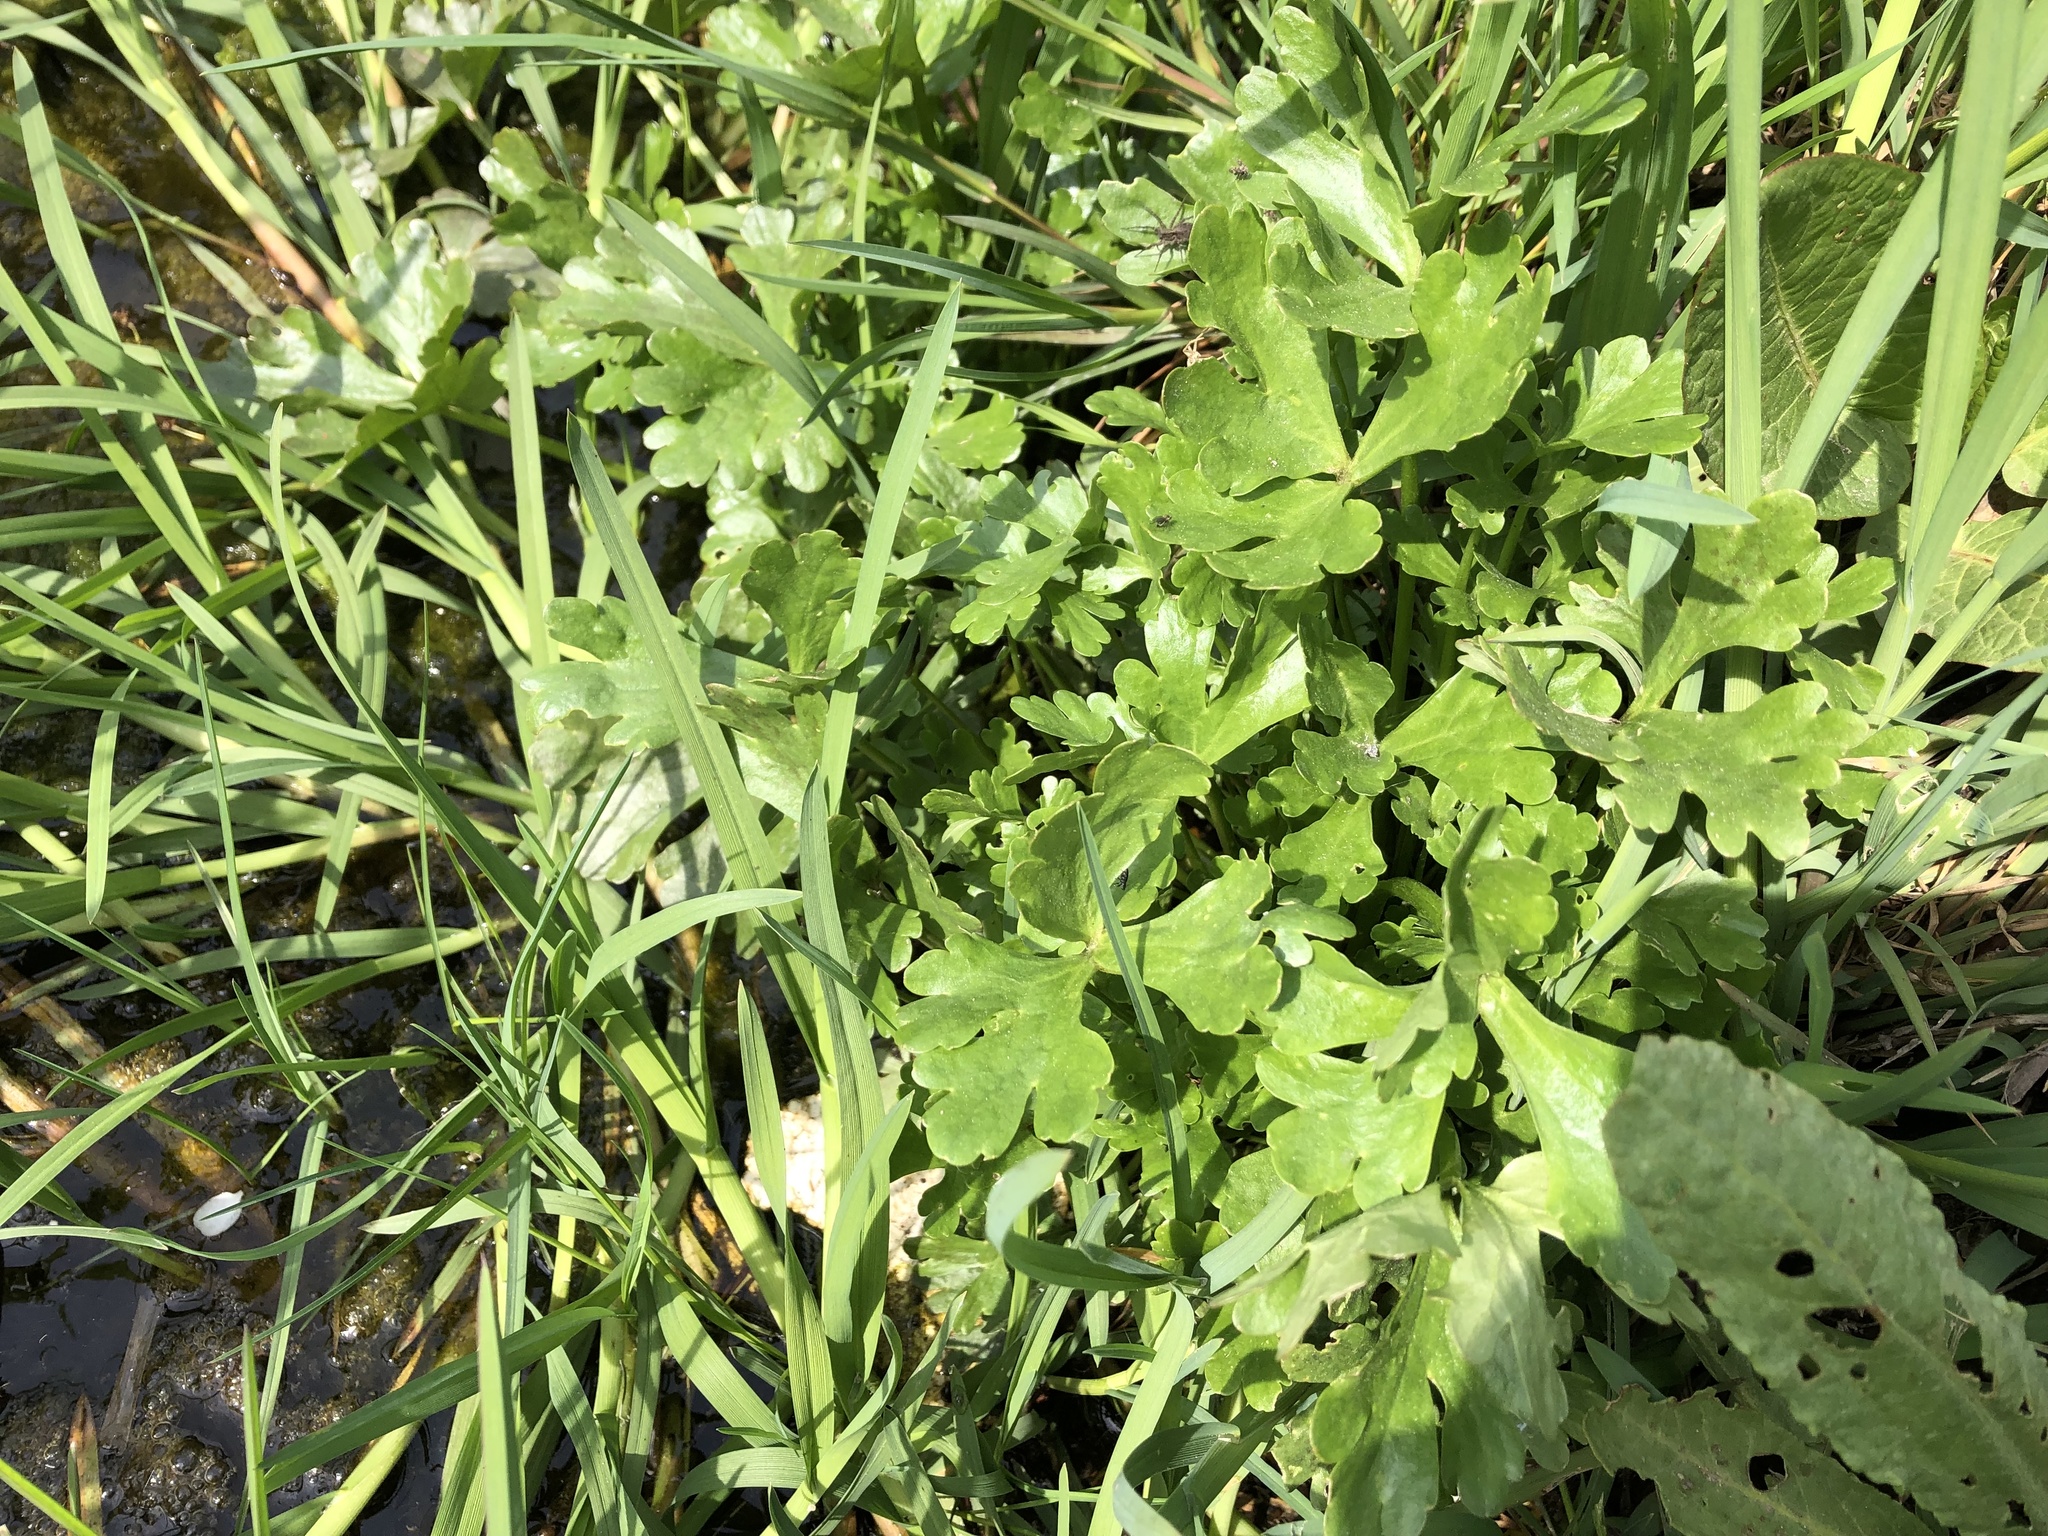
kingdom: Plantae
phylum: Tracheophyta
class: Magnoliopsida
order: Ranunculales
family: Ranunculaceae
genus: Ranunculus
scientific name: Ranunculus sceleratus
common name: Celery-leaved buttercup
